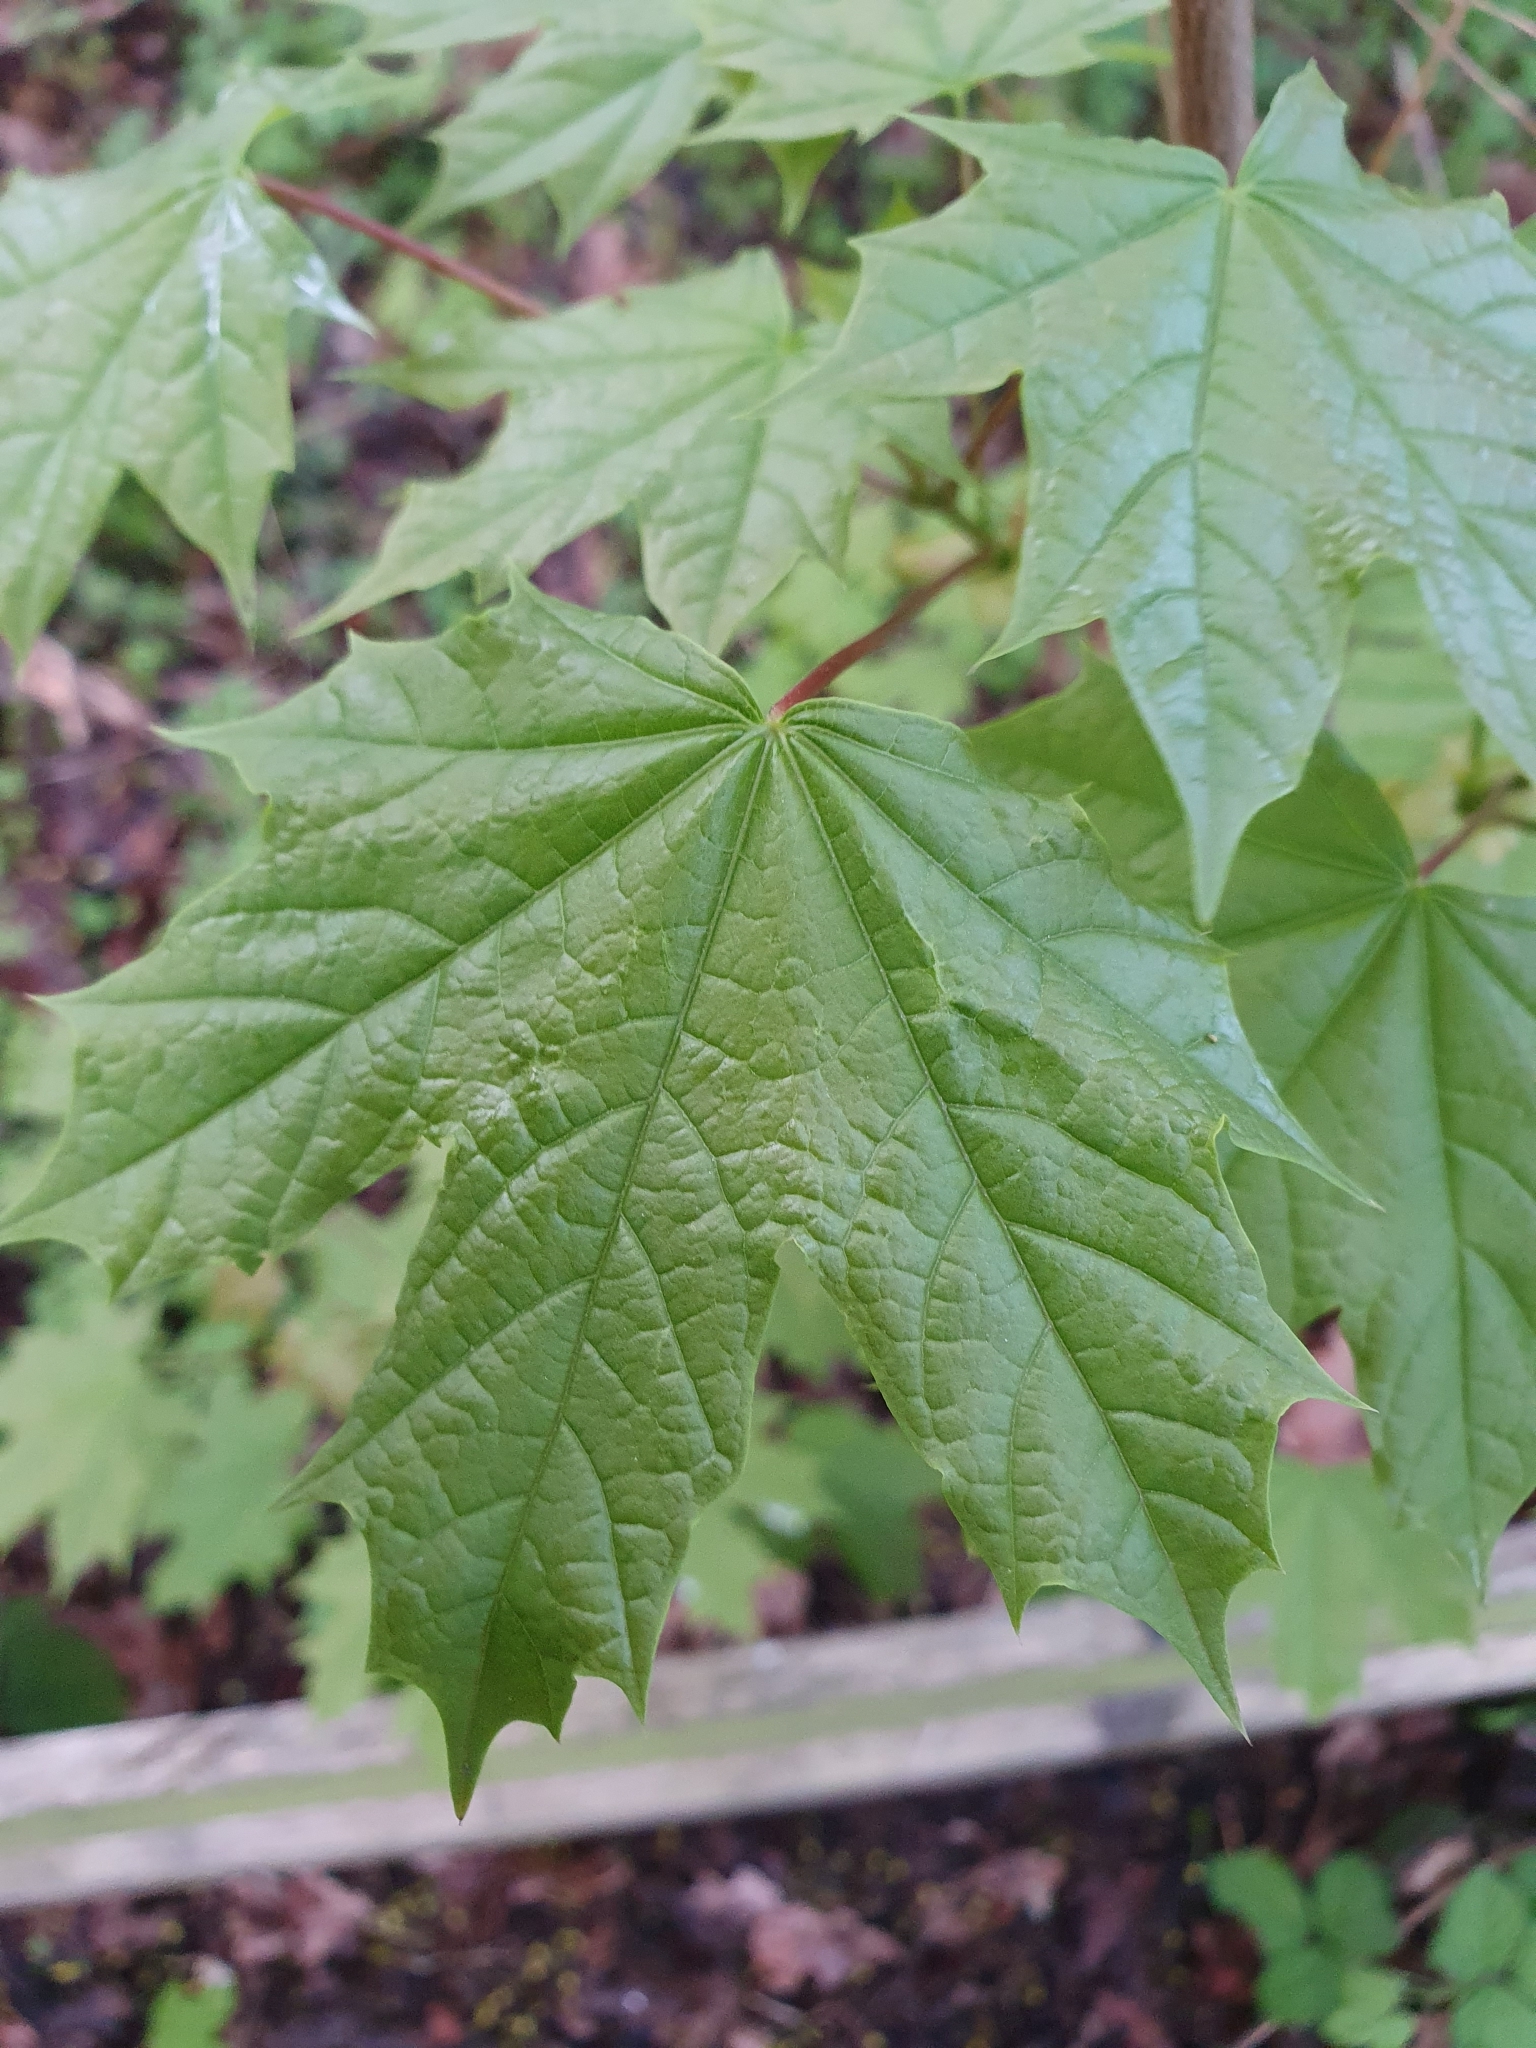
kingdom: Plantae
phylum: Tracheophyta
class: Magnoliopsida
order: Sapindales
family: Sapindaceae
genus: Acer
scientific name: Acer platanoides
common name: Norway maple
